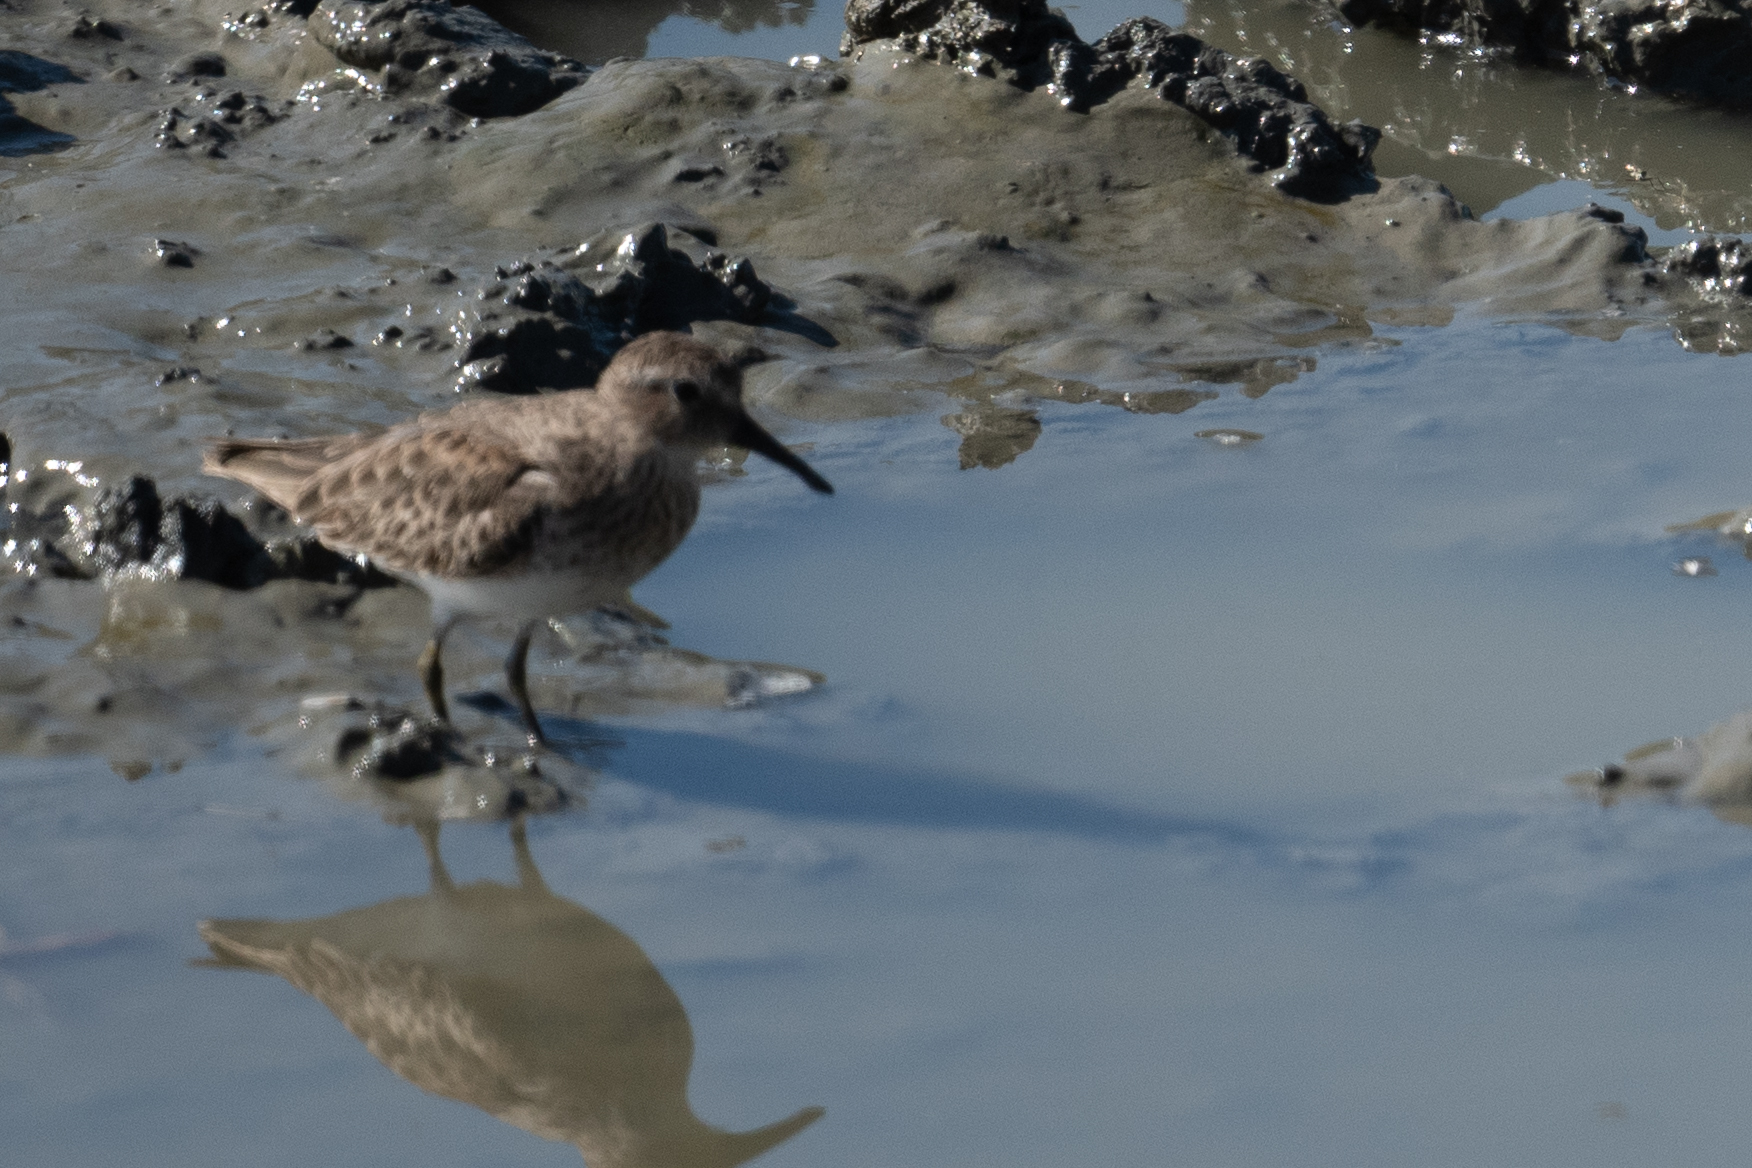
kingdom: Animalia
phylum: Chordata
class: Aves
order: Charadriiformes
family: Scolopacidae
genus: Calidris
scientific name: Calidris minutilla
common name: Least sandpiper
